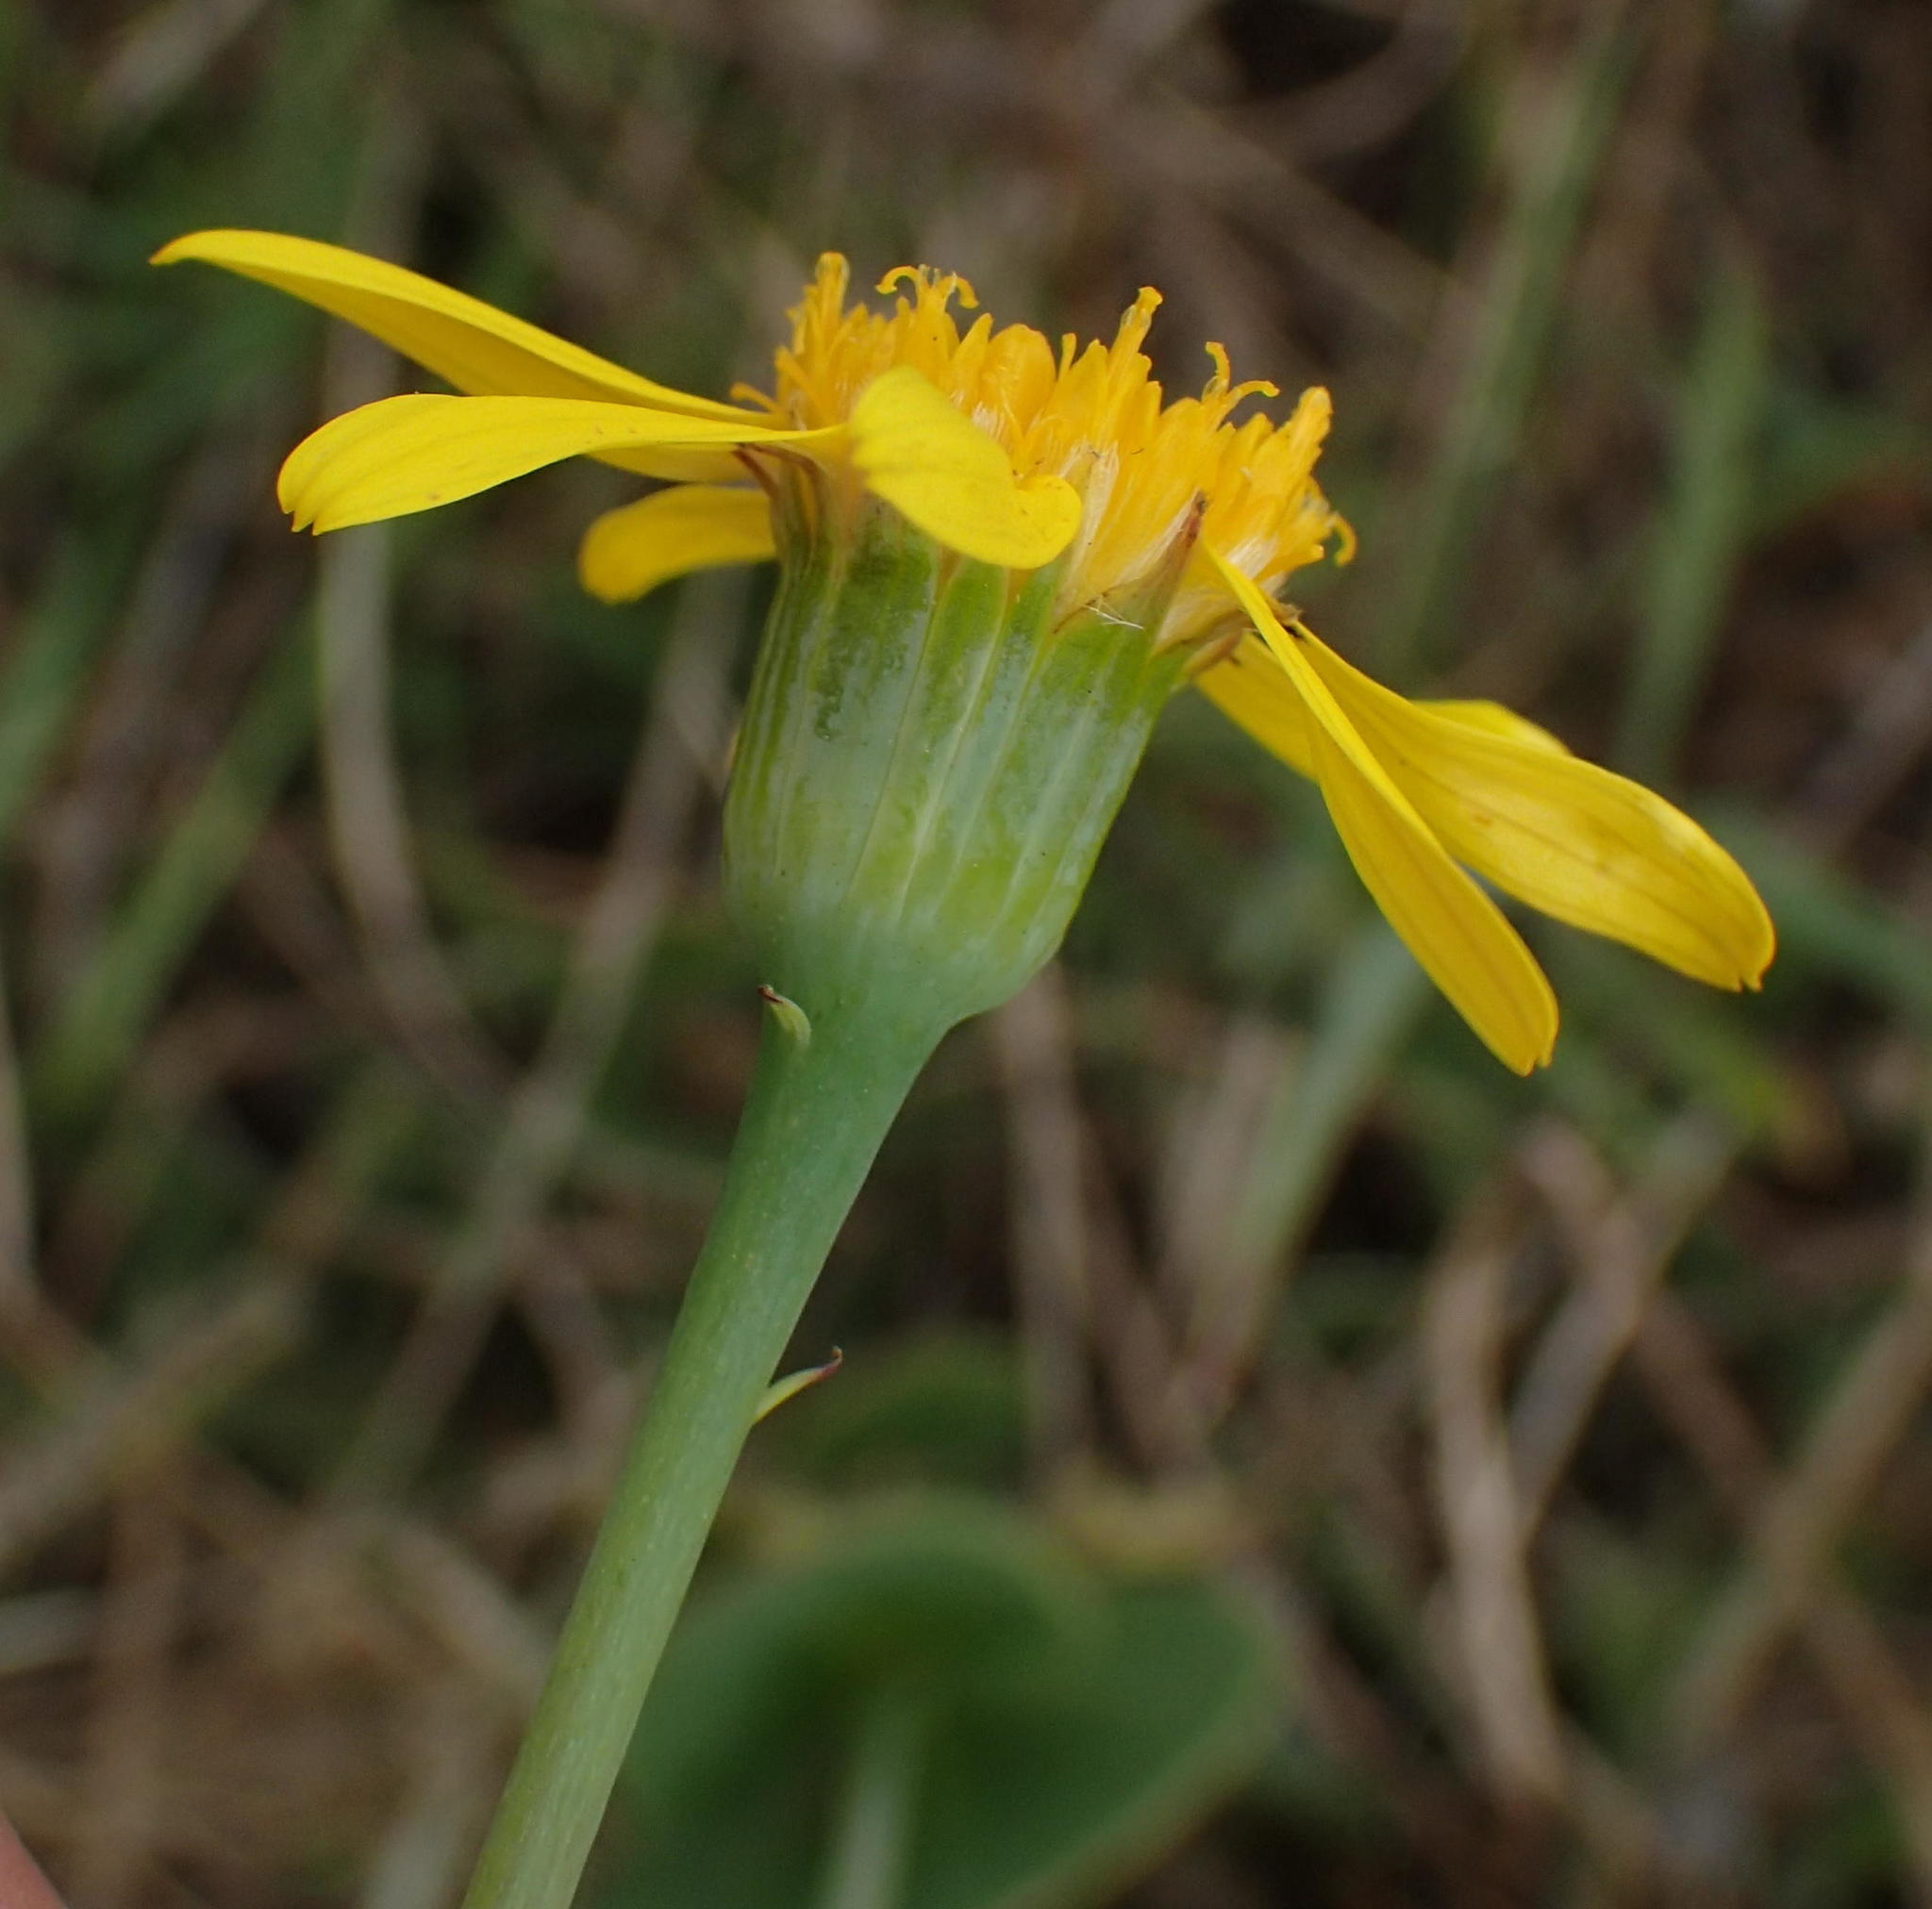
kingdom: Plantae
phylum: Tracheophyta
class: Magnoliopsida
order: Asterales
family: Asteraceae
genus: Senecio
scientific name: Senecio ruwenzoriensis
